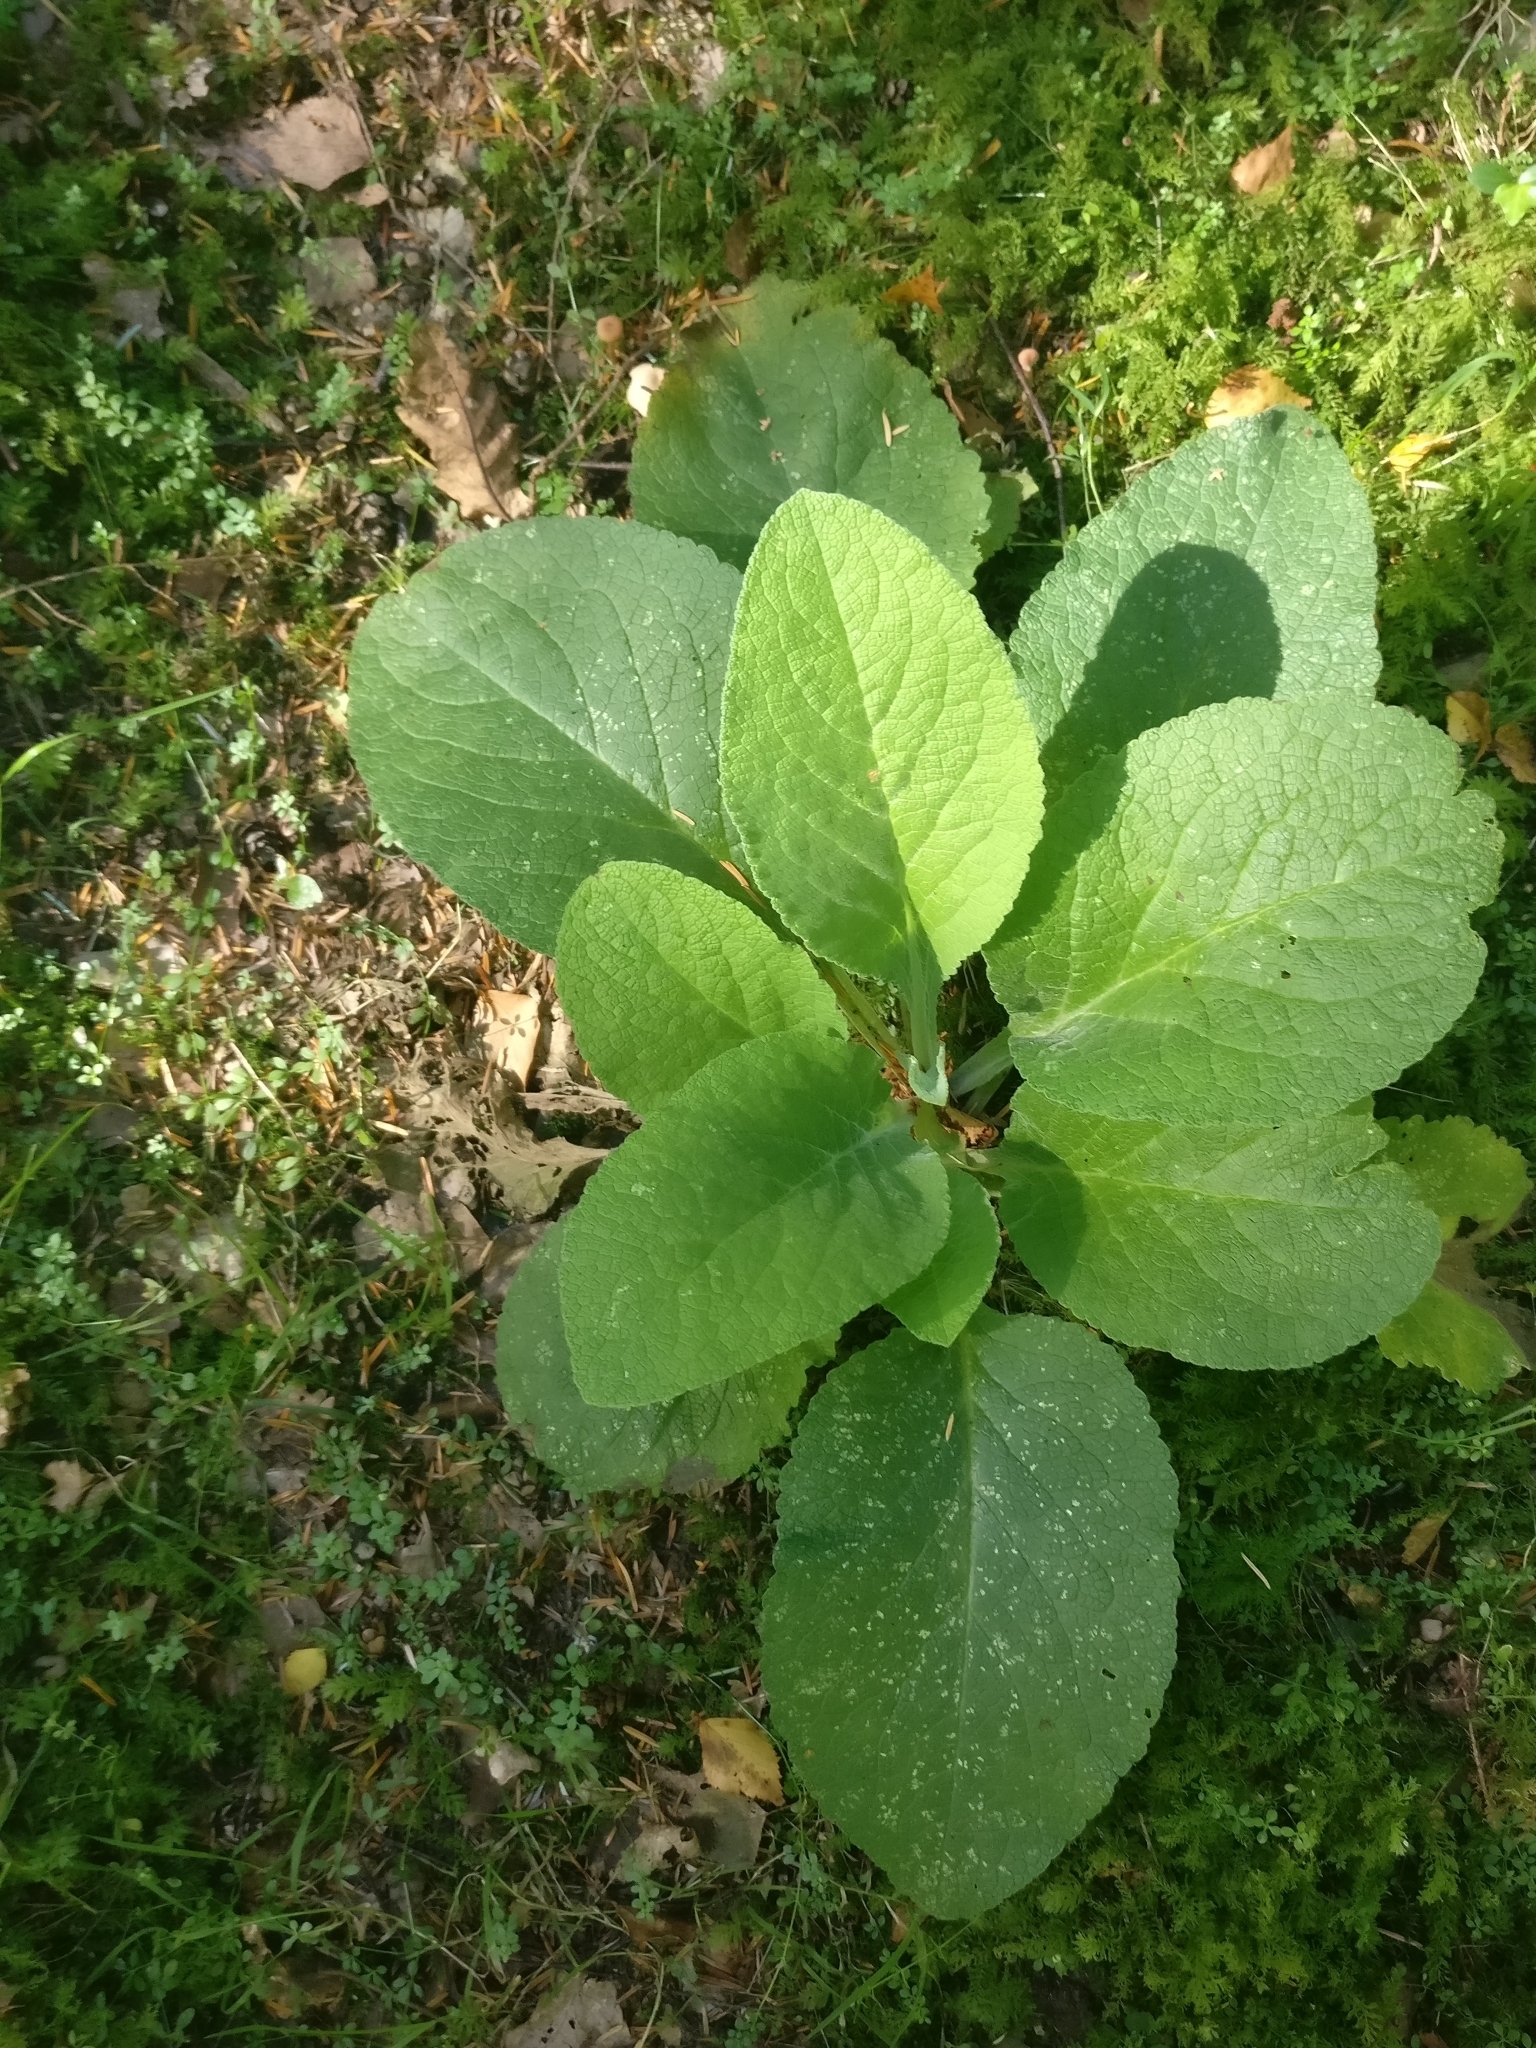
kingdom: Plantae
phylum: Tracheophyta
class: Magnoliopsida
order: Lamiales
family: Plantaginaceae
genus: Digitalis
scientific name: Digitalis purpurea
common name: Foxglove
